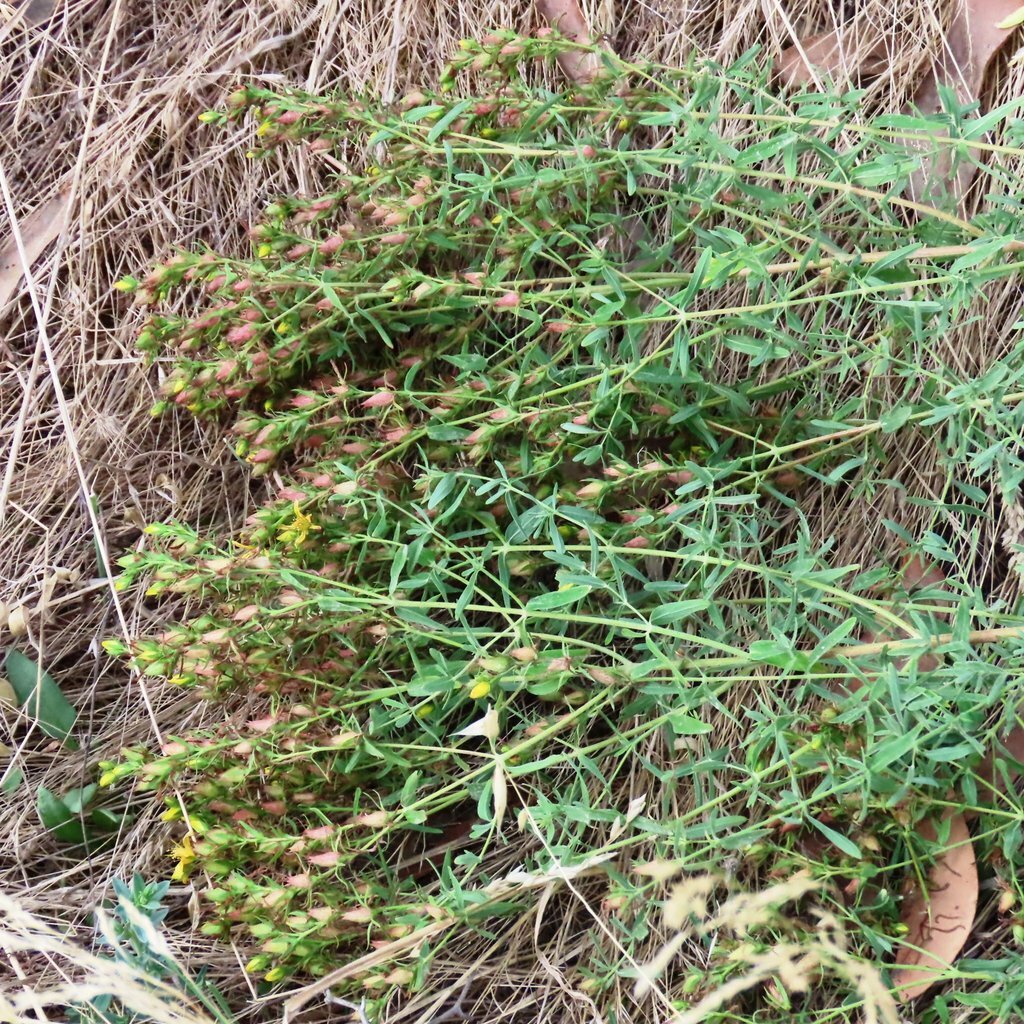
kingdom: Plantae
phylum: Tracheophyta
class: Magnoliopsida
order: Malpighiales
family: Hypericaceae
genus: Hypericum
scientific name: Hypericum perforatum
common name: Common st. johnswort
